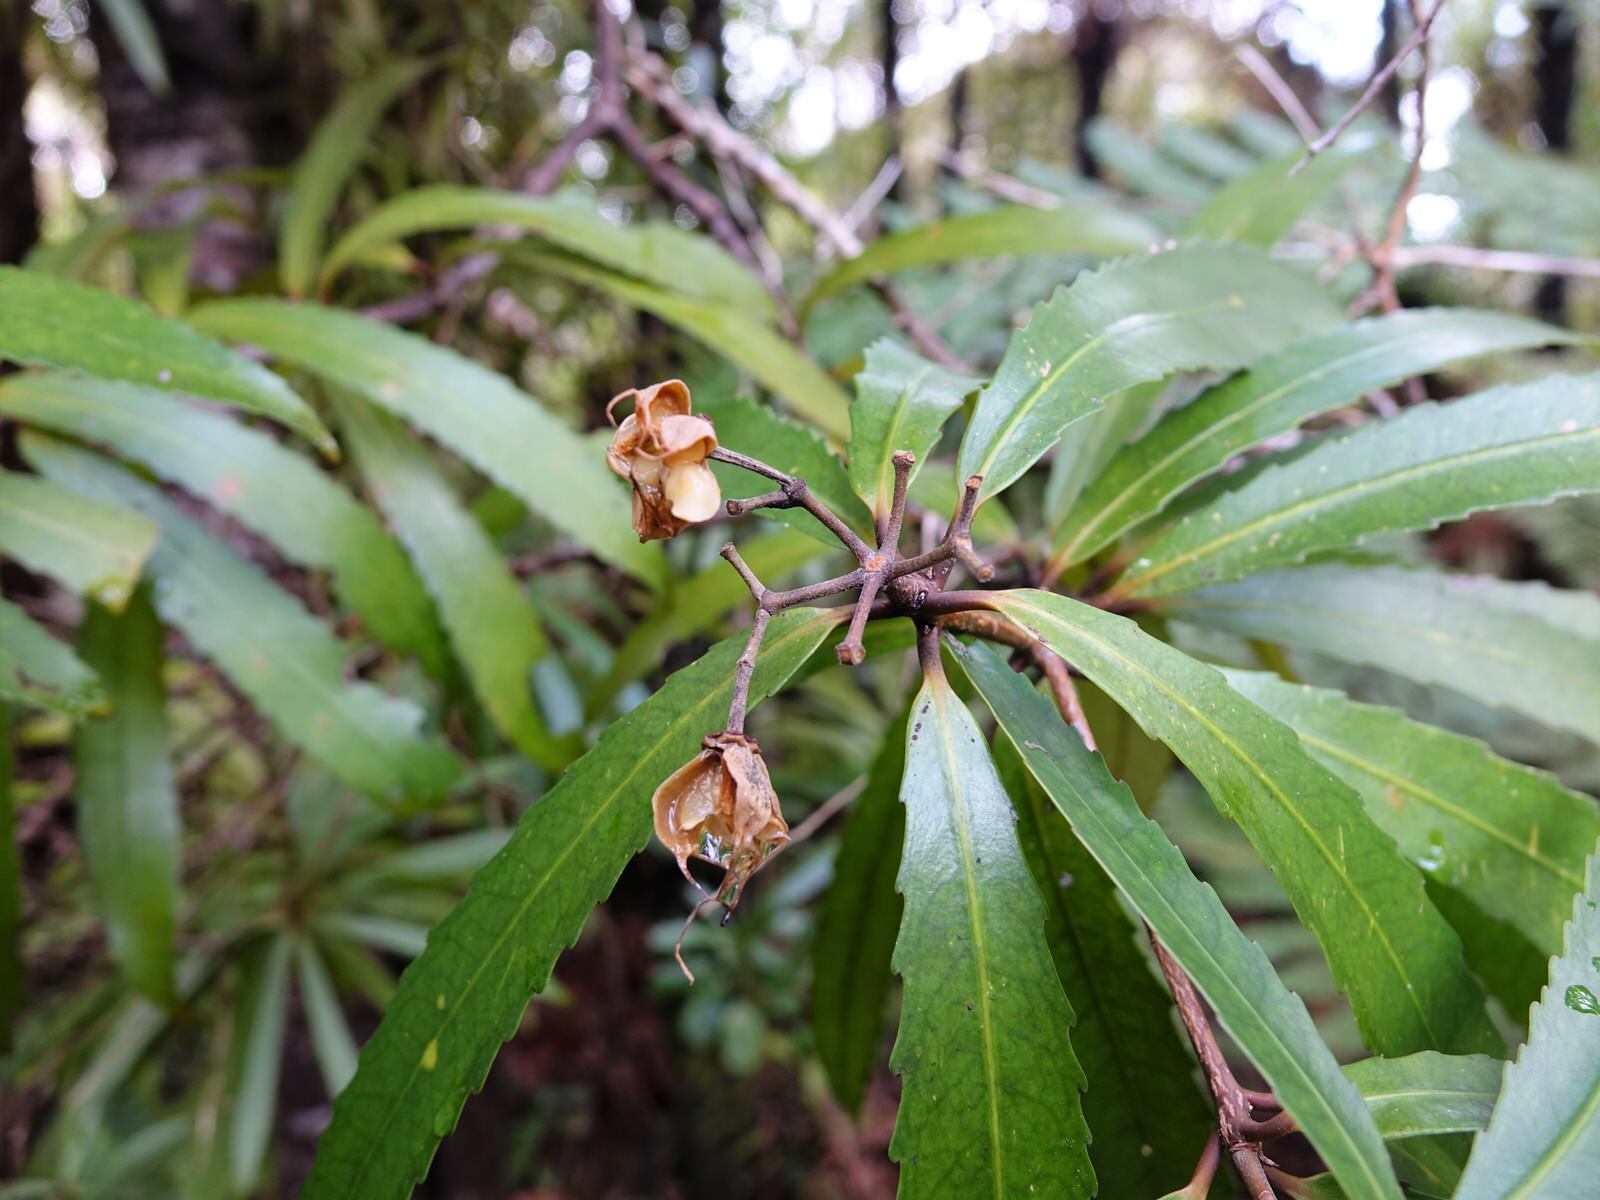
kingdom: Plantae
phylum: Tracheophyta
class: Magnoliopsida
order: Crossosomatales
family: Ixerbaceae
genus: Ixerba
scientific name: Ixerba brexioides
